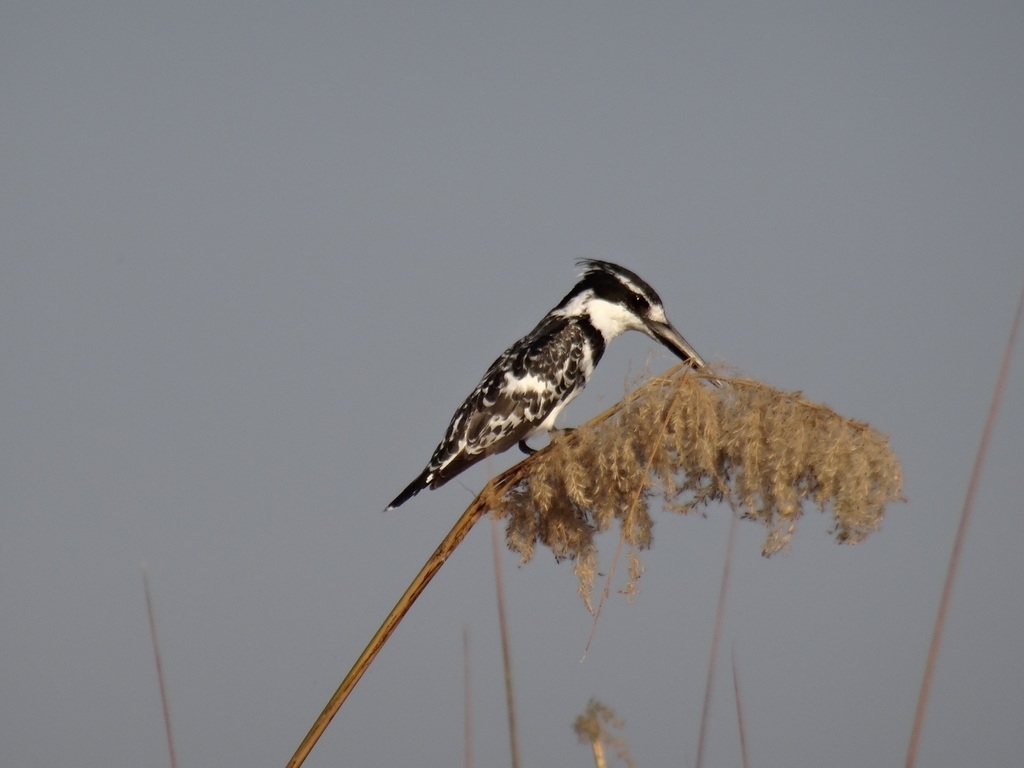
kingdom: Animalia
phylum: Chordata
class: Aves
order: Coraciiformes
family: Alcedinidae
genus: Ceryle
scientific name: Ceryle rudis
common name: Pied kingfisher
